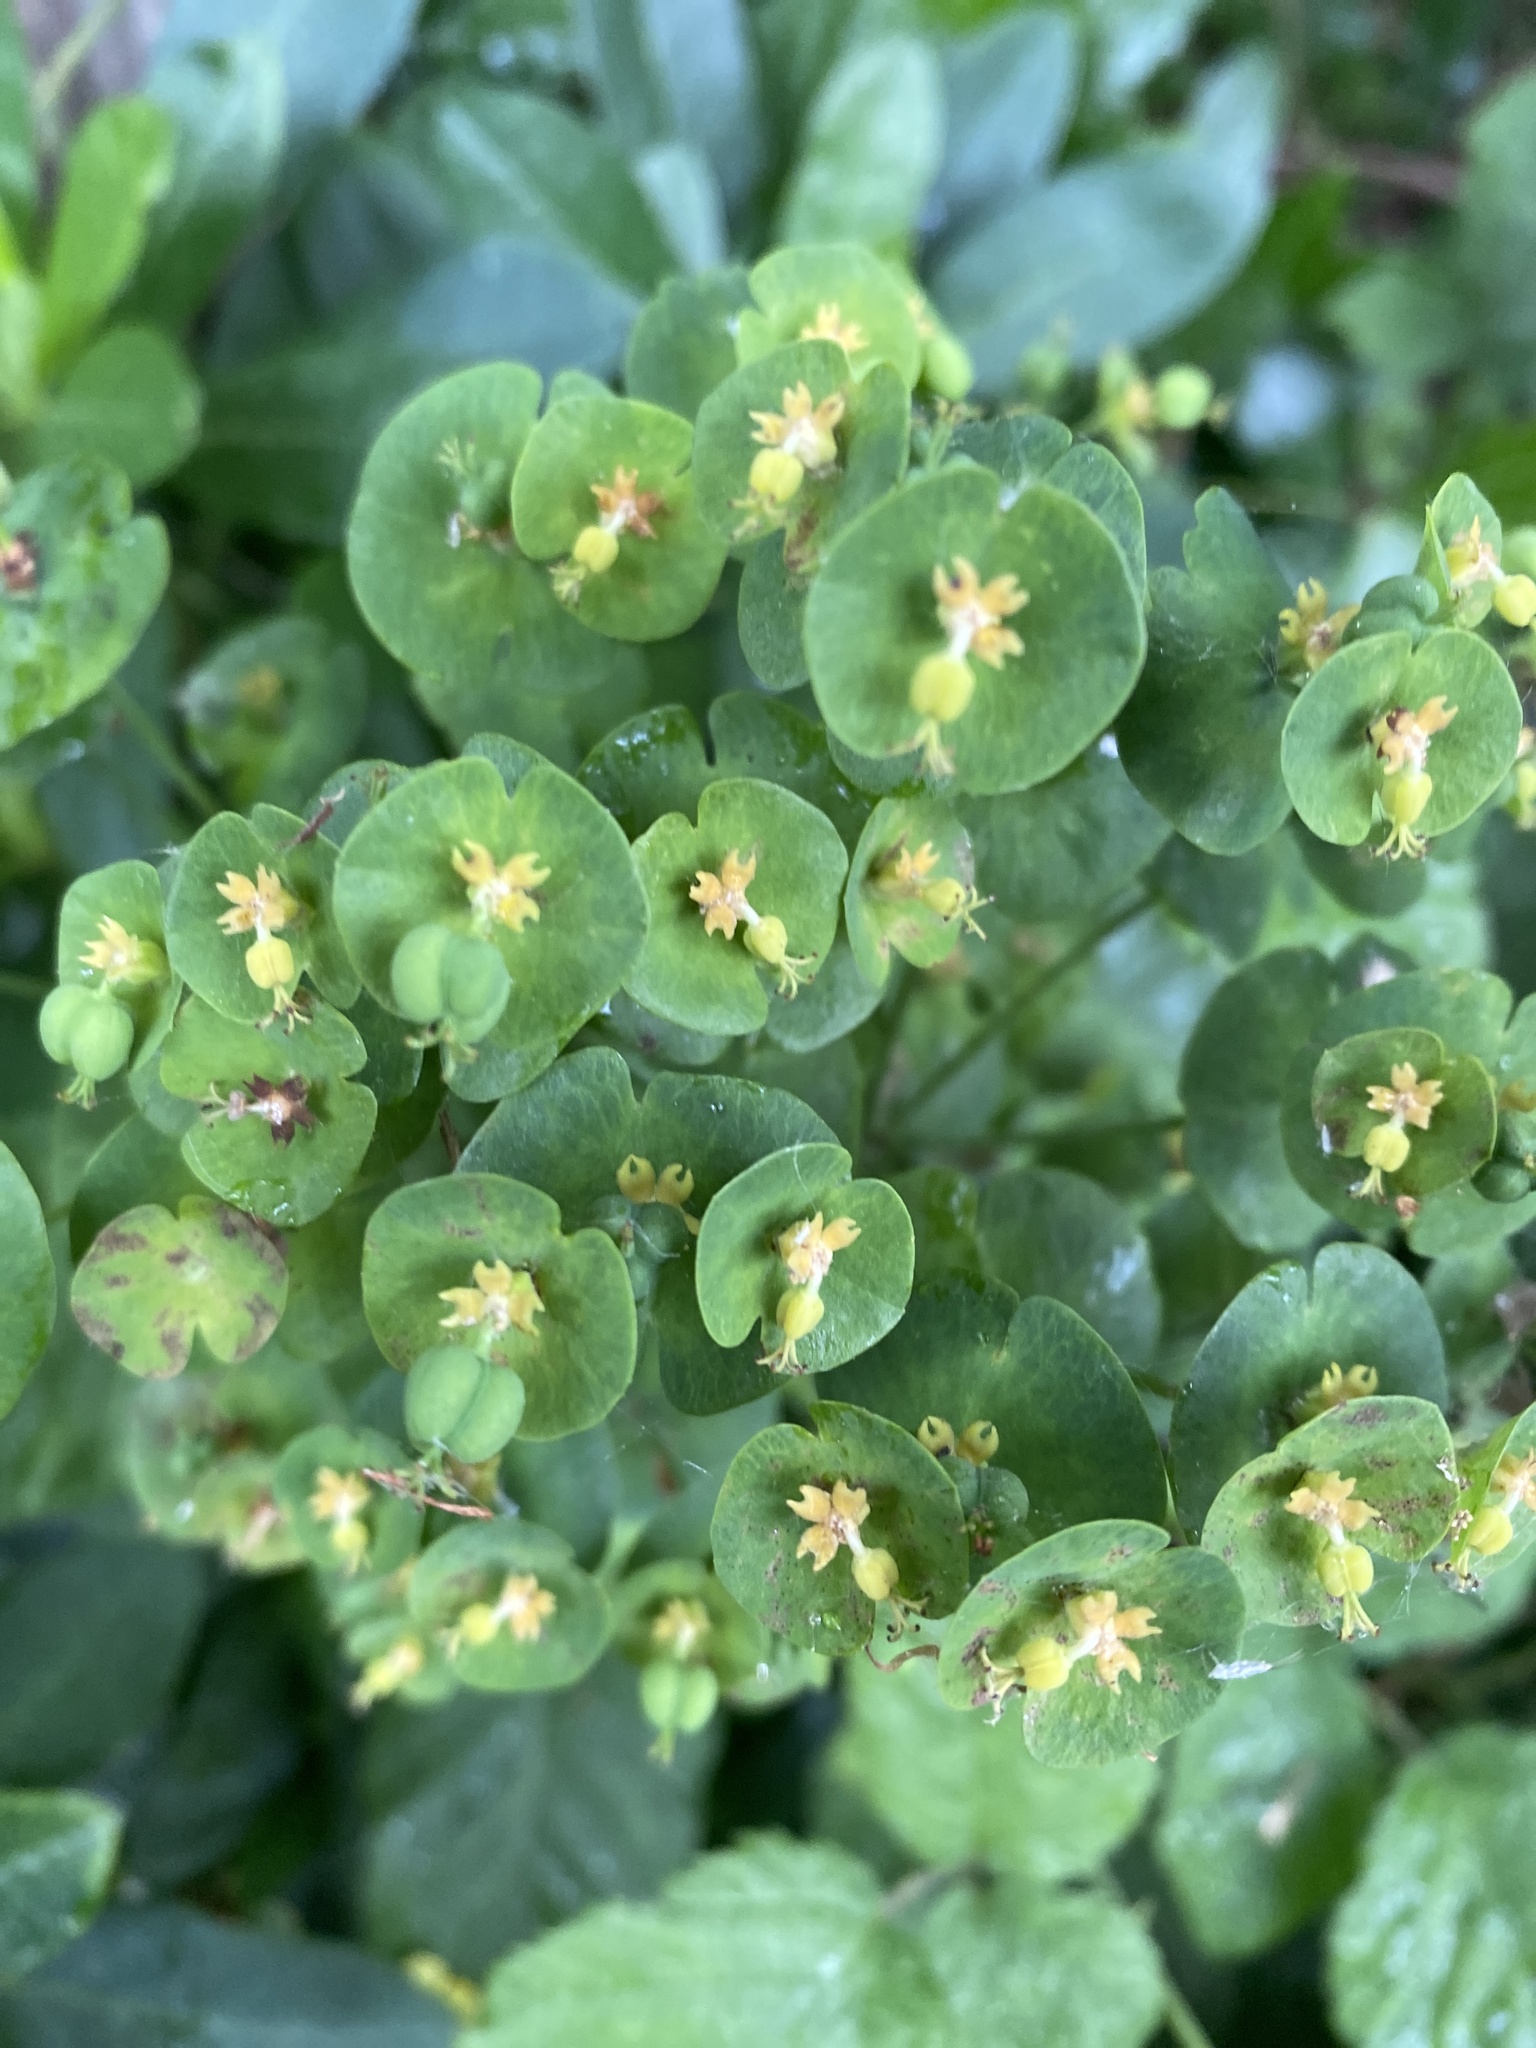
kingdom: Plantae
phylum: Tracheophyta
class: Magnoliopsida
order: Malpighiales
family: Euphorbiaceae
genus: Euphorbia
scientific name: Euphorbia amygdaloides
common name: Wood spurge
